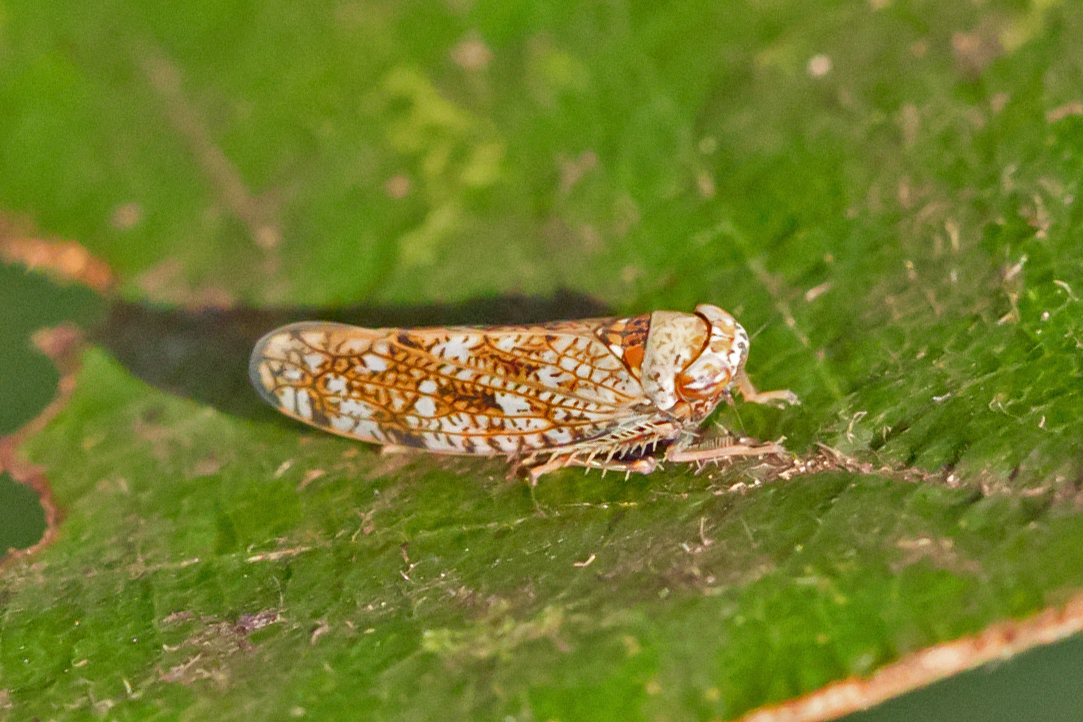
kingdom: Animalia
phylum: Arthropoda
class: Insecta
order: Hemiptera
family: Cicadellidae
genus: Orientus
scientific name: Orientus ishidae
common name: Japanese leafhopper
